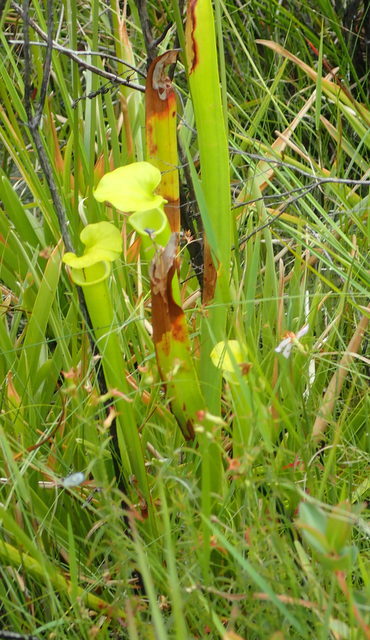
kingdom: Plantae
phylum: Tracheophyta
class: Magnoliopsida
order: Ericales
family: Sarraceniaceae
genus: Sarracenia
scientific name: Sarracenia flava
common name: Trumpets
